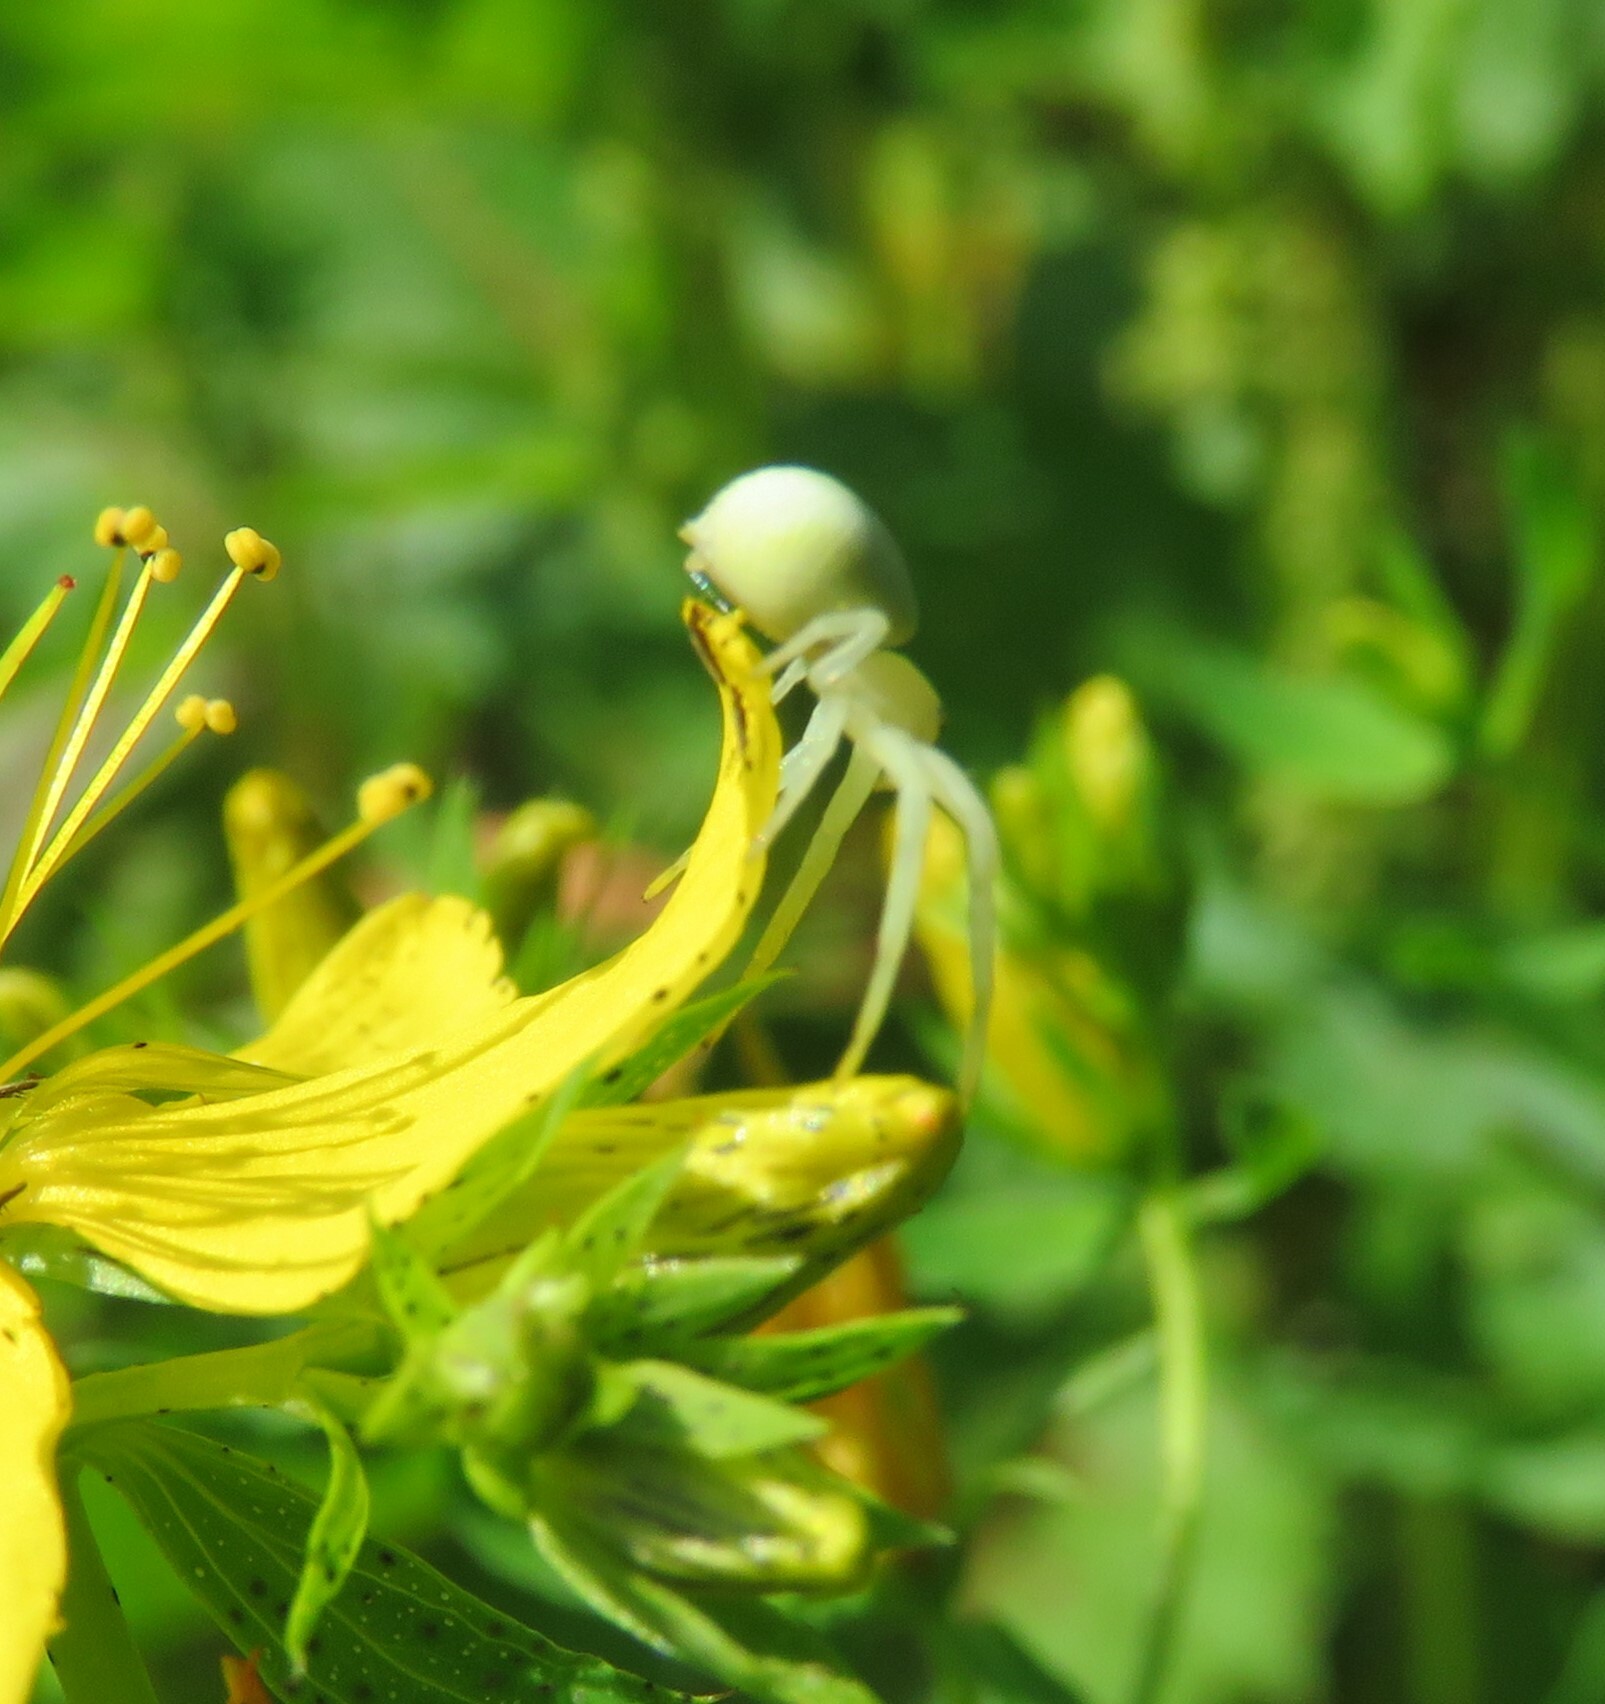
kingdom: Animalia
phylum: Arthropoda
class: Arachnida
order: Araneae
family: Thomisidae
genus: Misumena
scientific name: Misumena vatia
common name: Goldenrod crab spider
